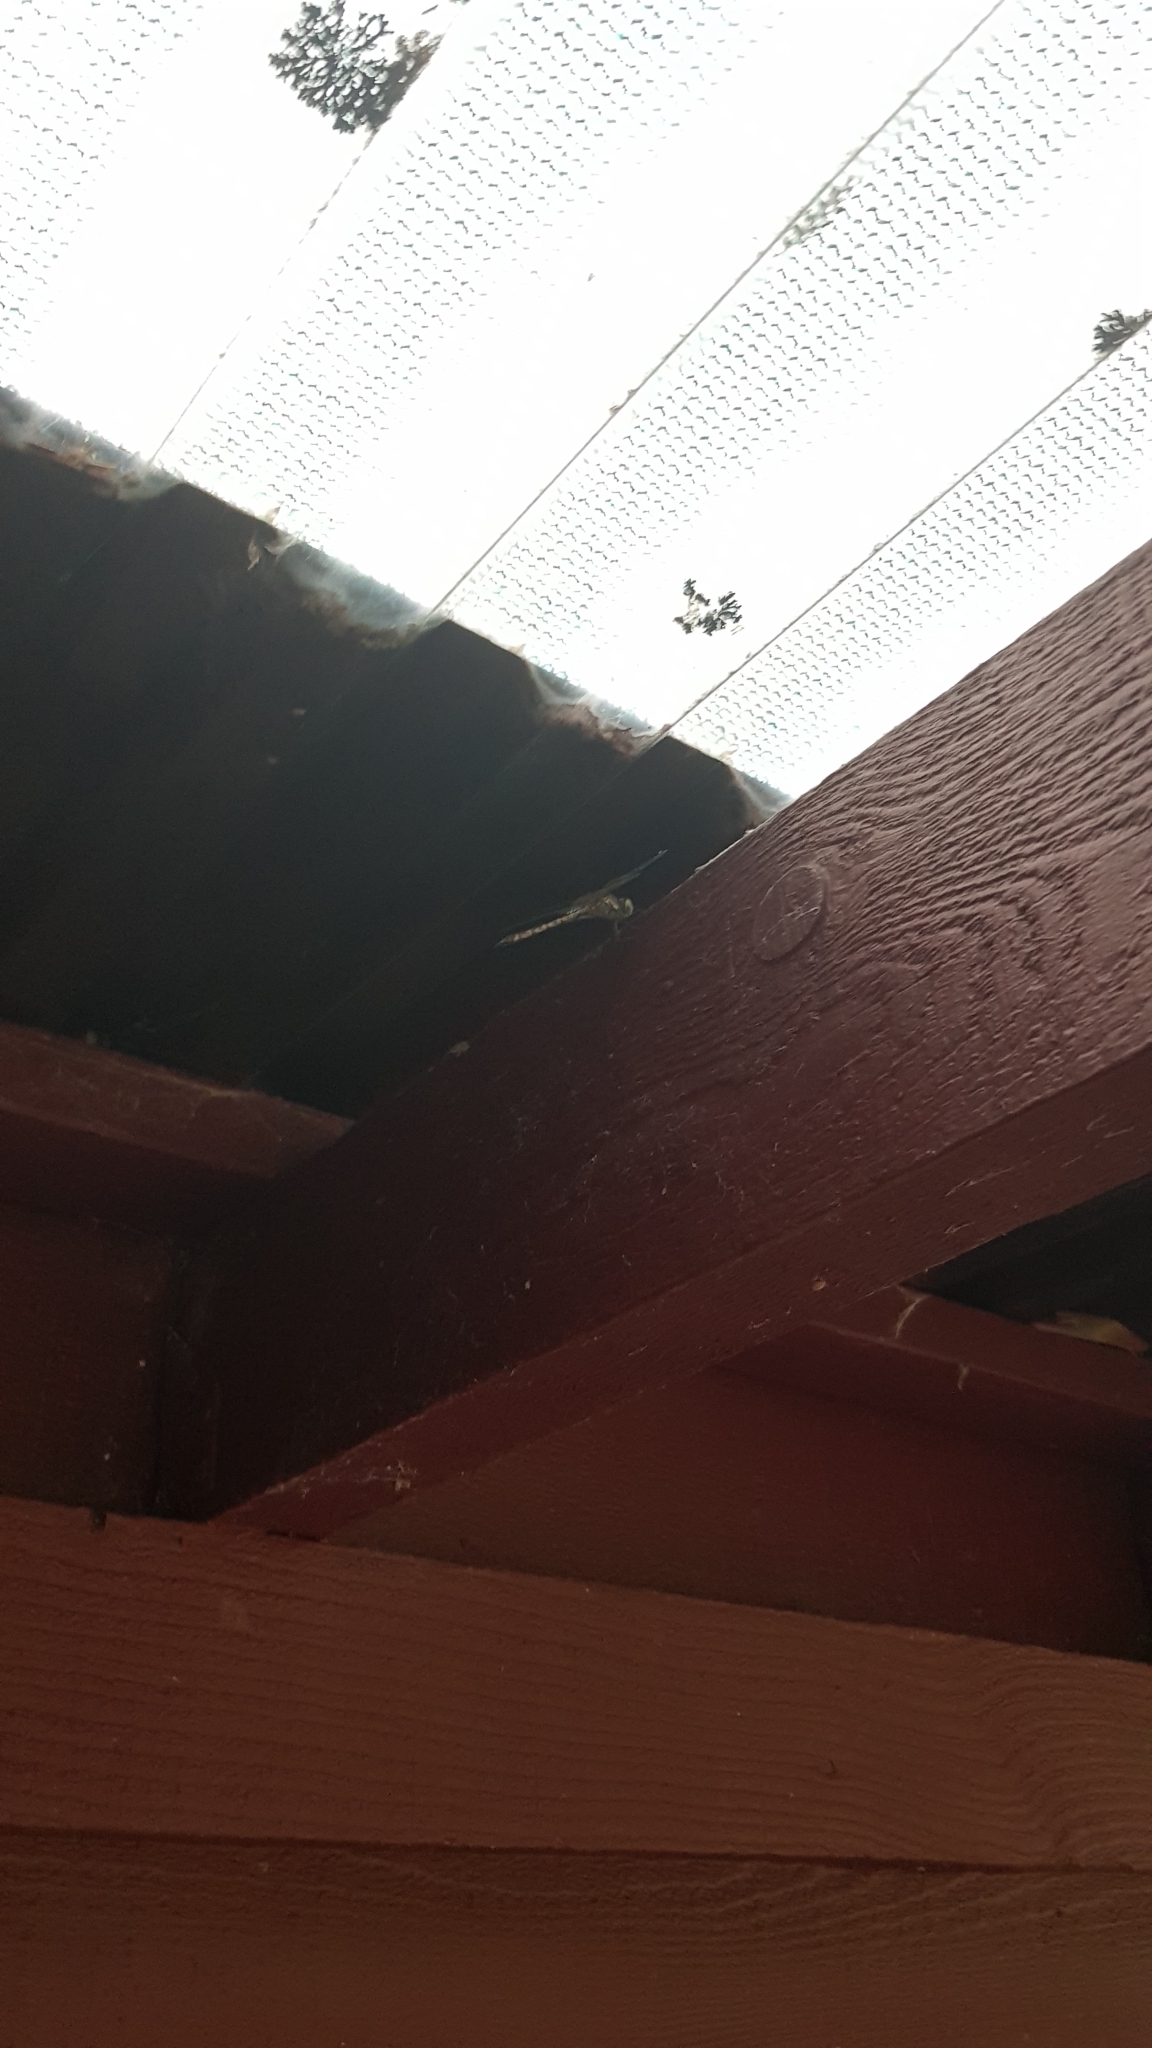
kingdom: Animalia
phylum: Arthropoda
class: Insecta
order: Odonata
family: Corduliidae
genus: Hemicordulia
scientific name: Hemicordulia australiae
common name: Sentry dragonfly
